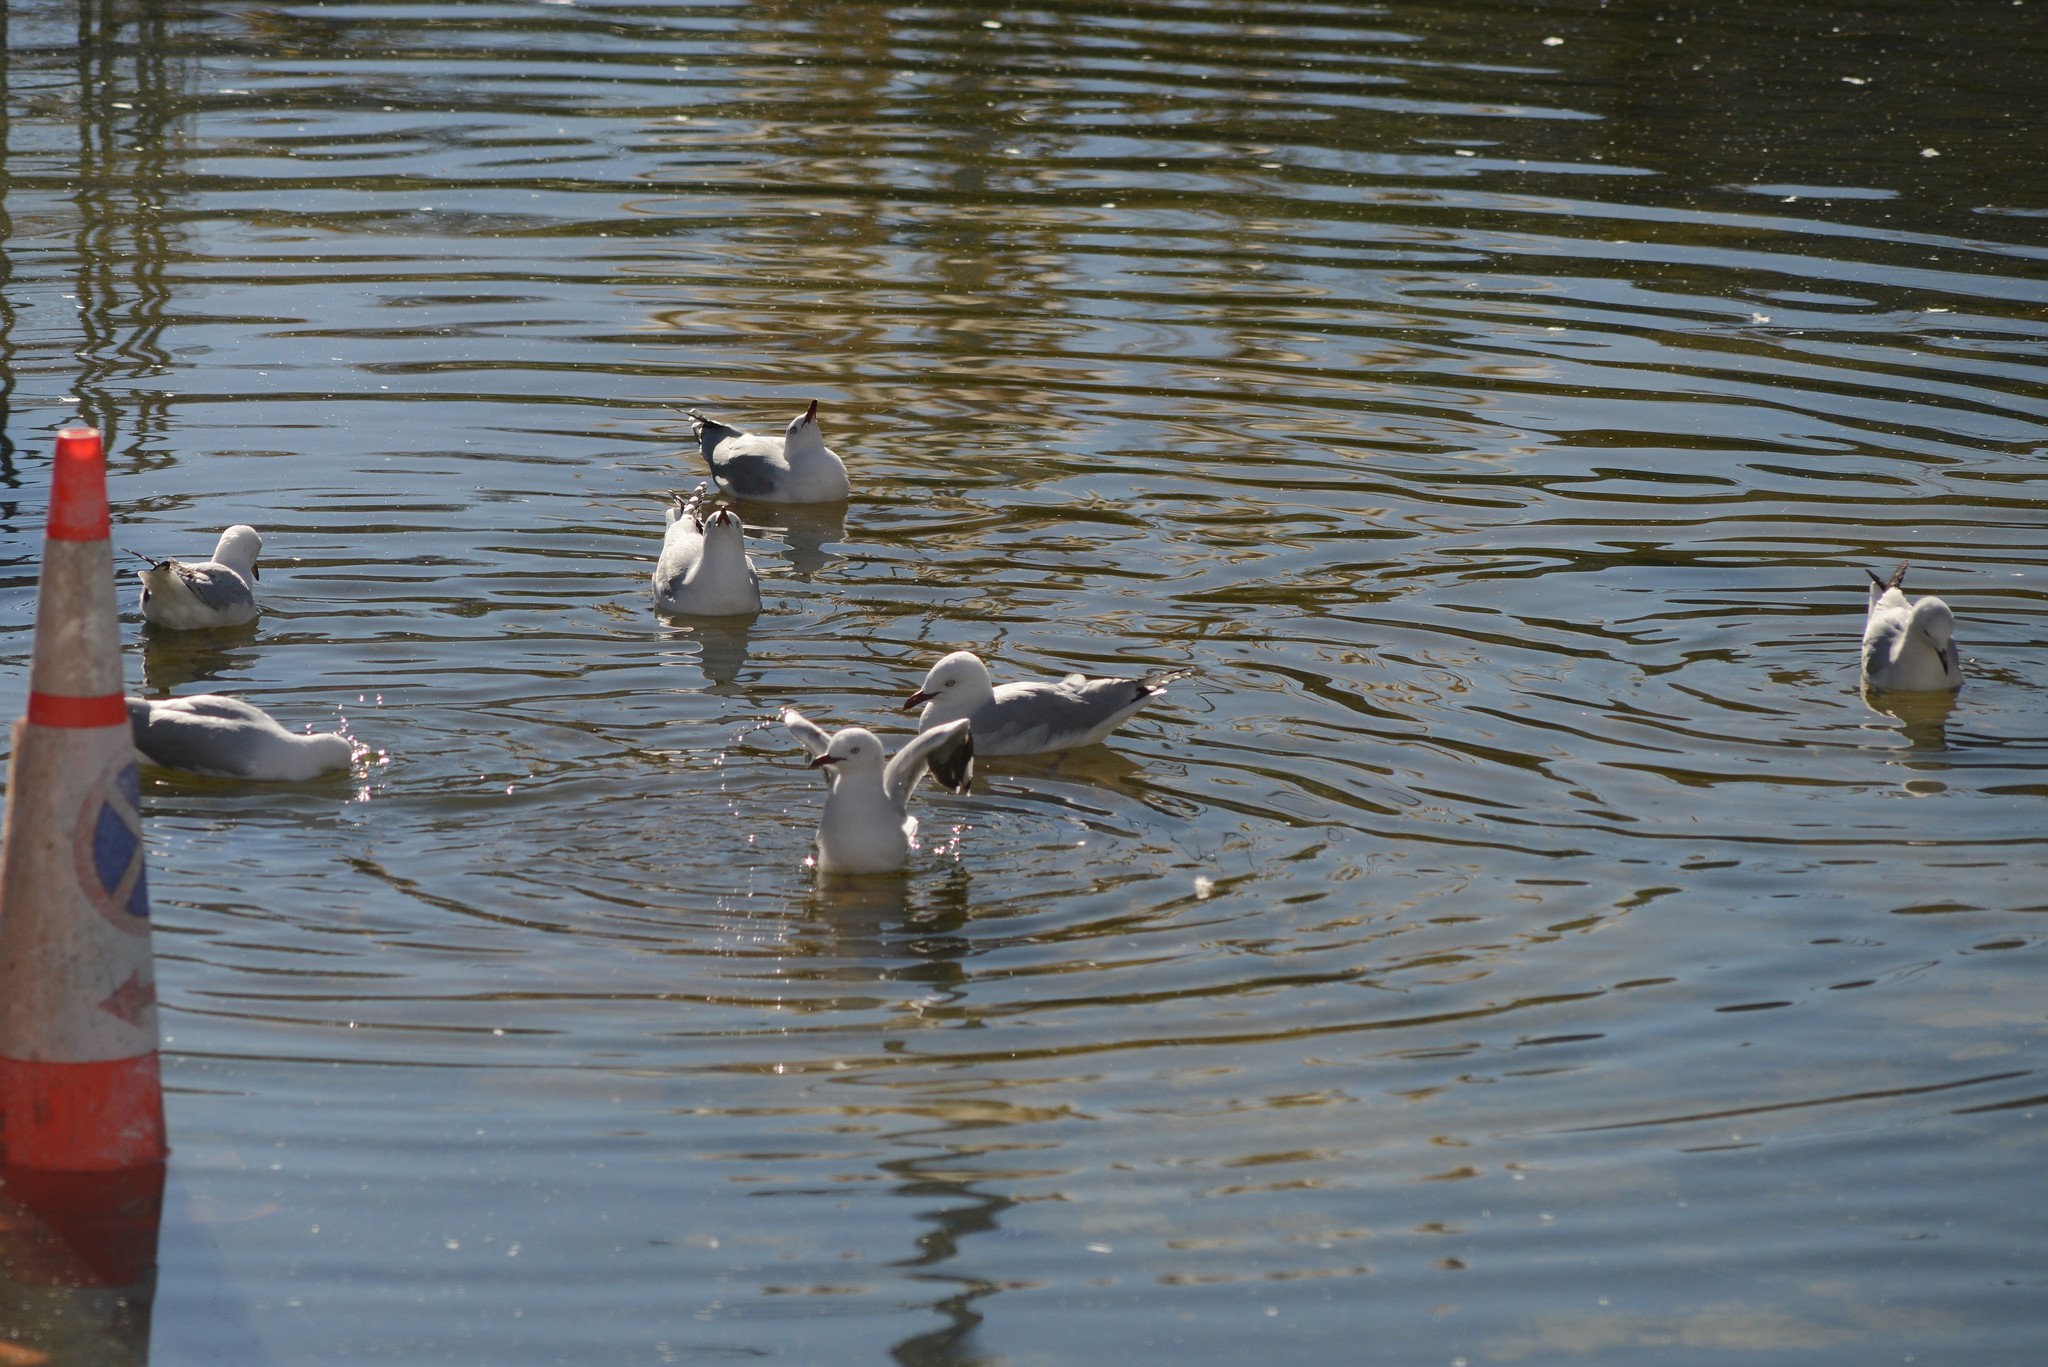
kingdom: Animalia
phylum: Chordata
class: Aves
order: Charadriiformes
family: Laridae
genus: Chroicocephalus
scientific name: Chroicocephalus novaehollandiae
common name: Silver gull
